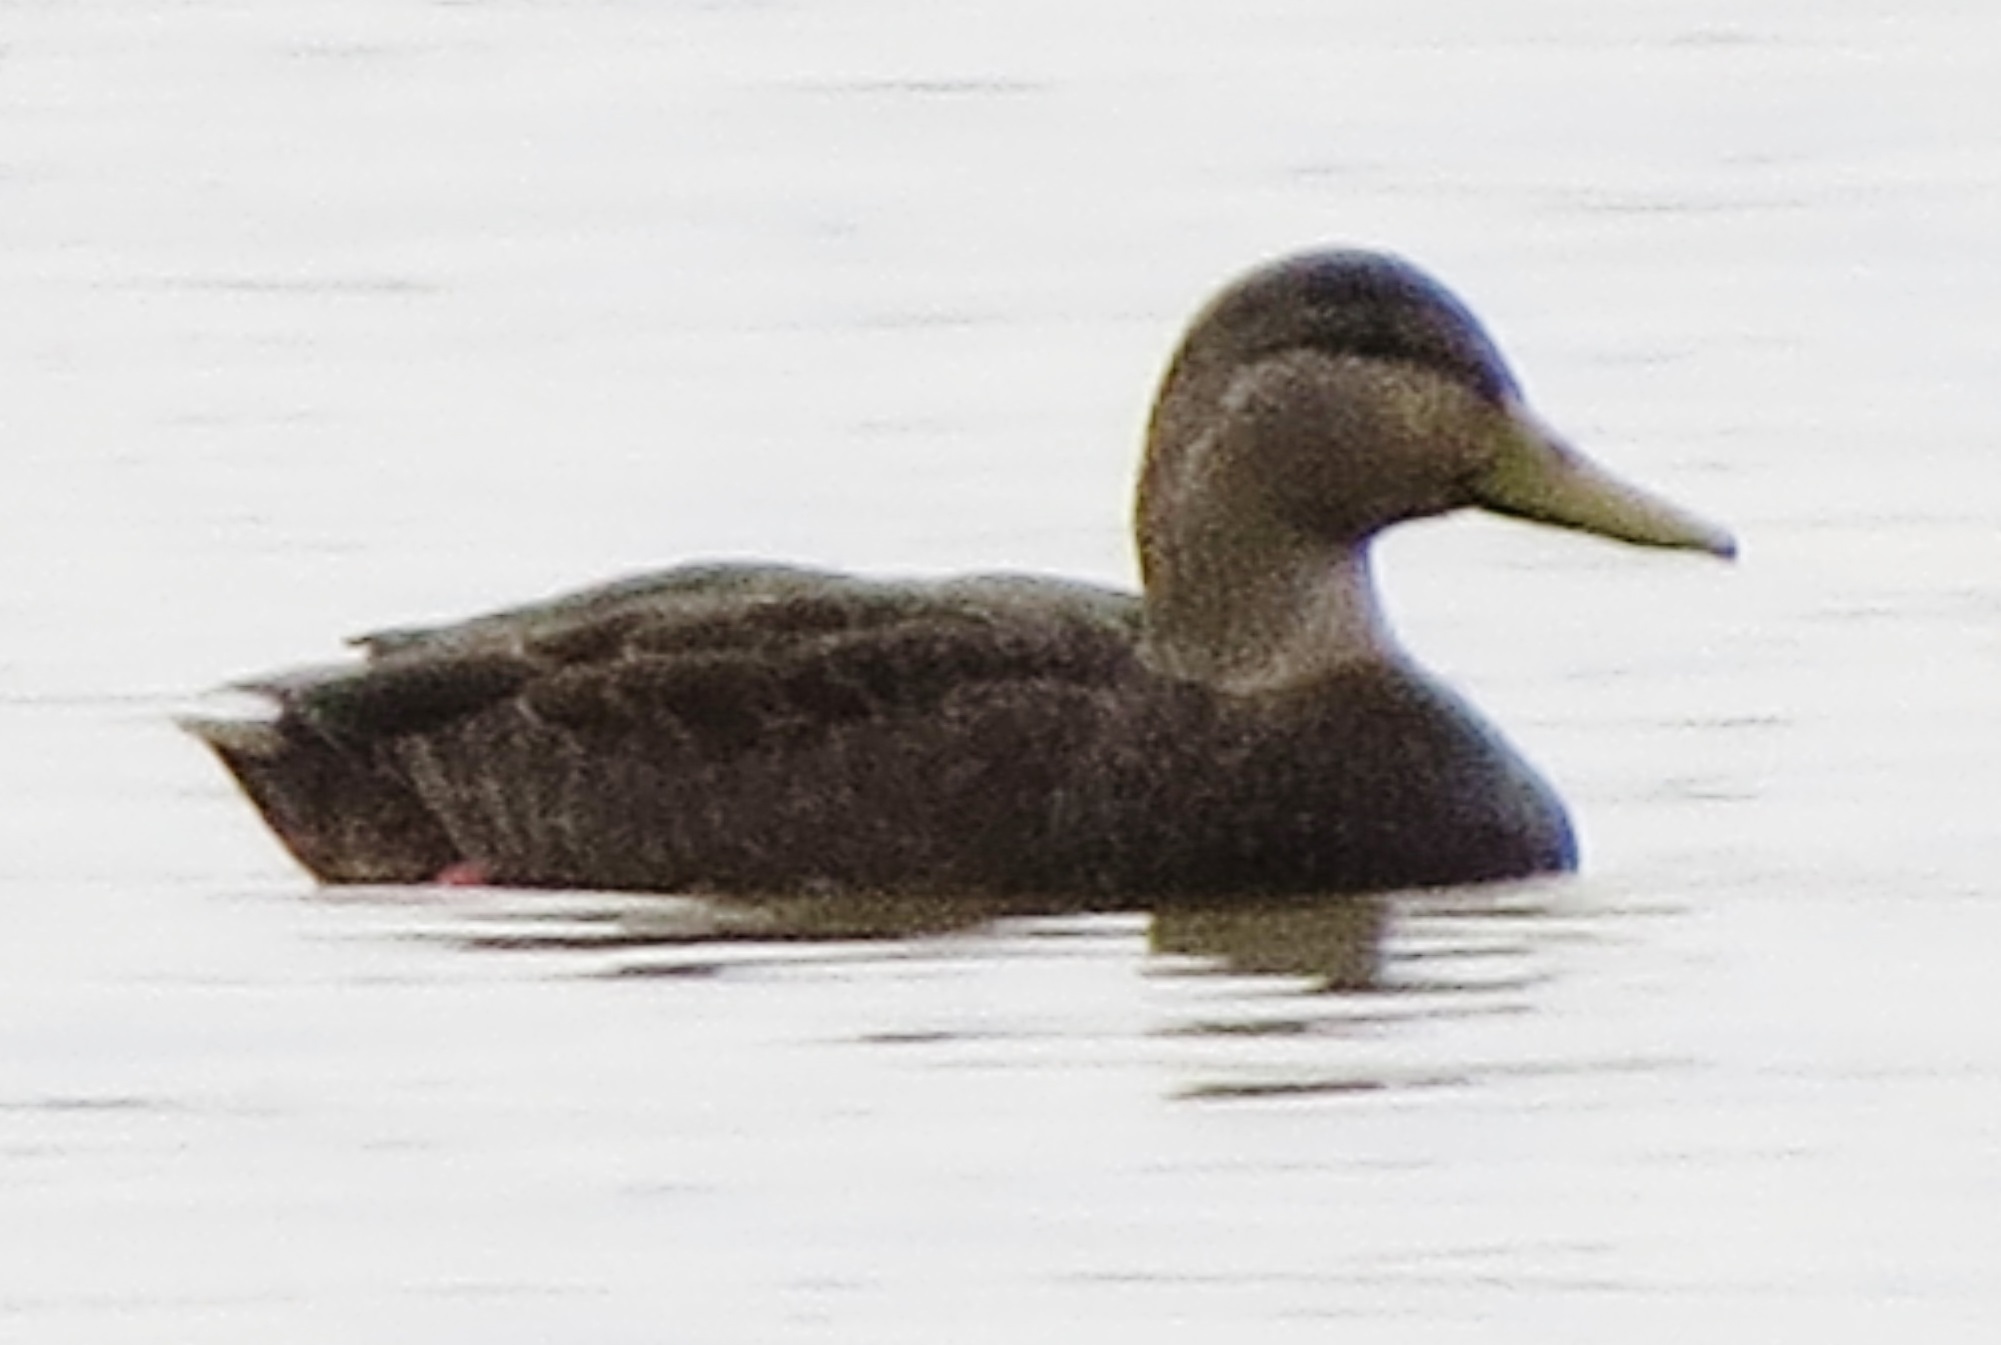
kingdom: Animalia
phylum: Chordata
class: Aves
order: Anseriformes
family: Anatidae
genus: Anas
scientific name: Anas rubripes
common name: American black duck
